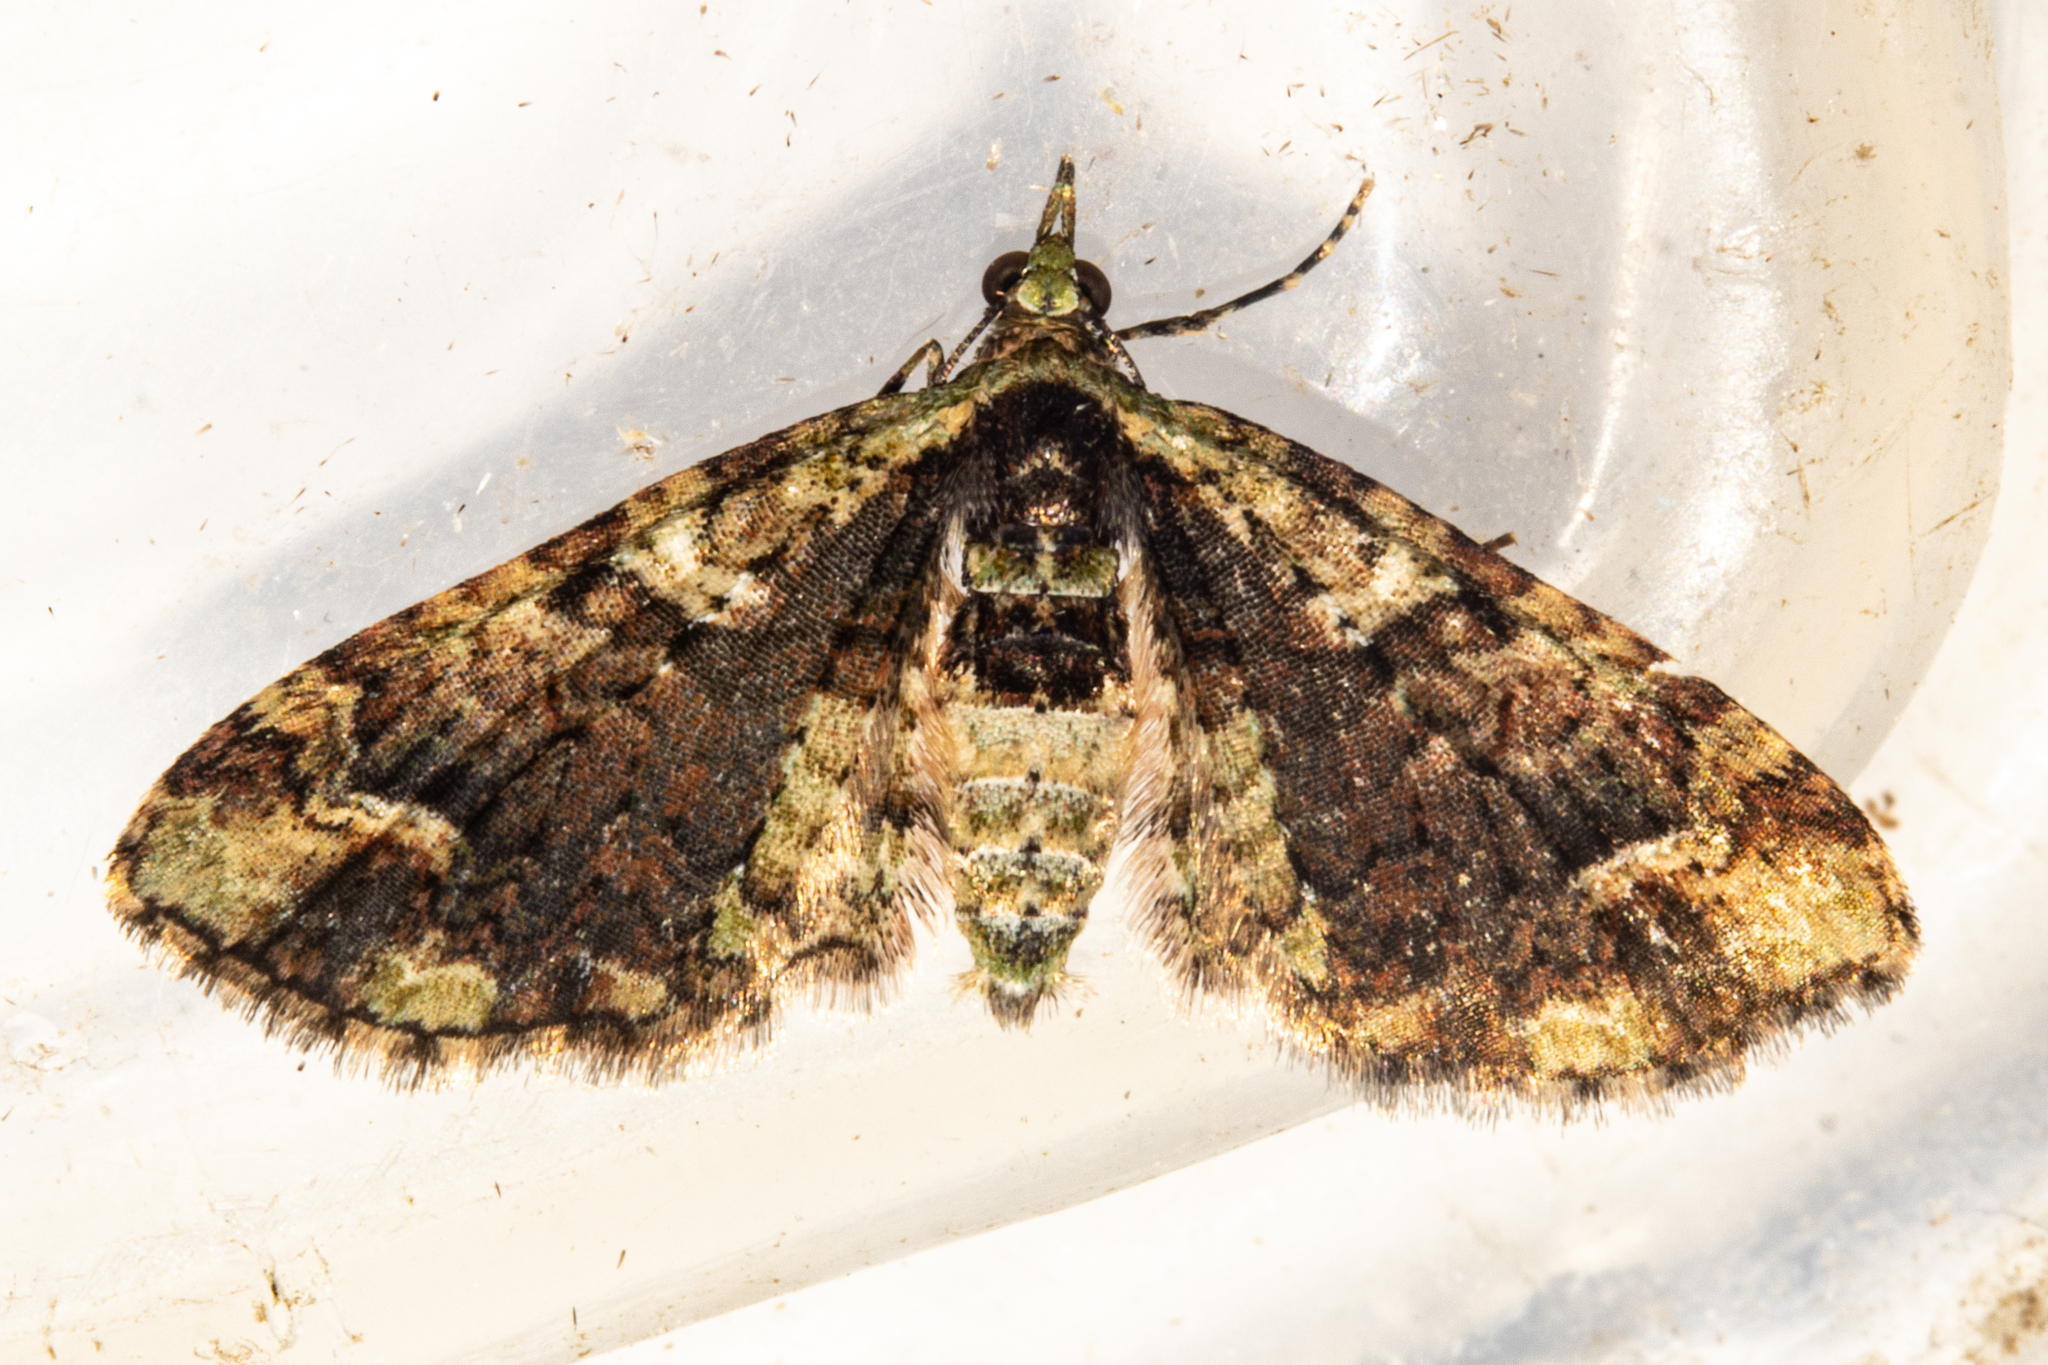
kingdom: Animalia
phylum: Arthropoda
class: Insecta
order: Lepidoptera
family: Geometridae
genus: Idaea
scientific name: Idaea mutanda
